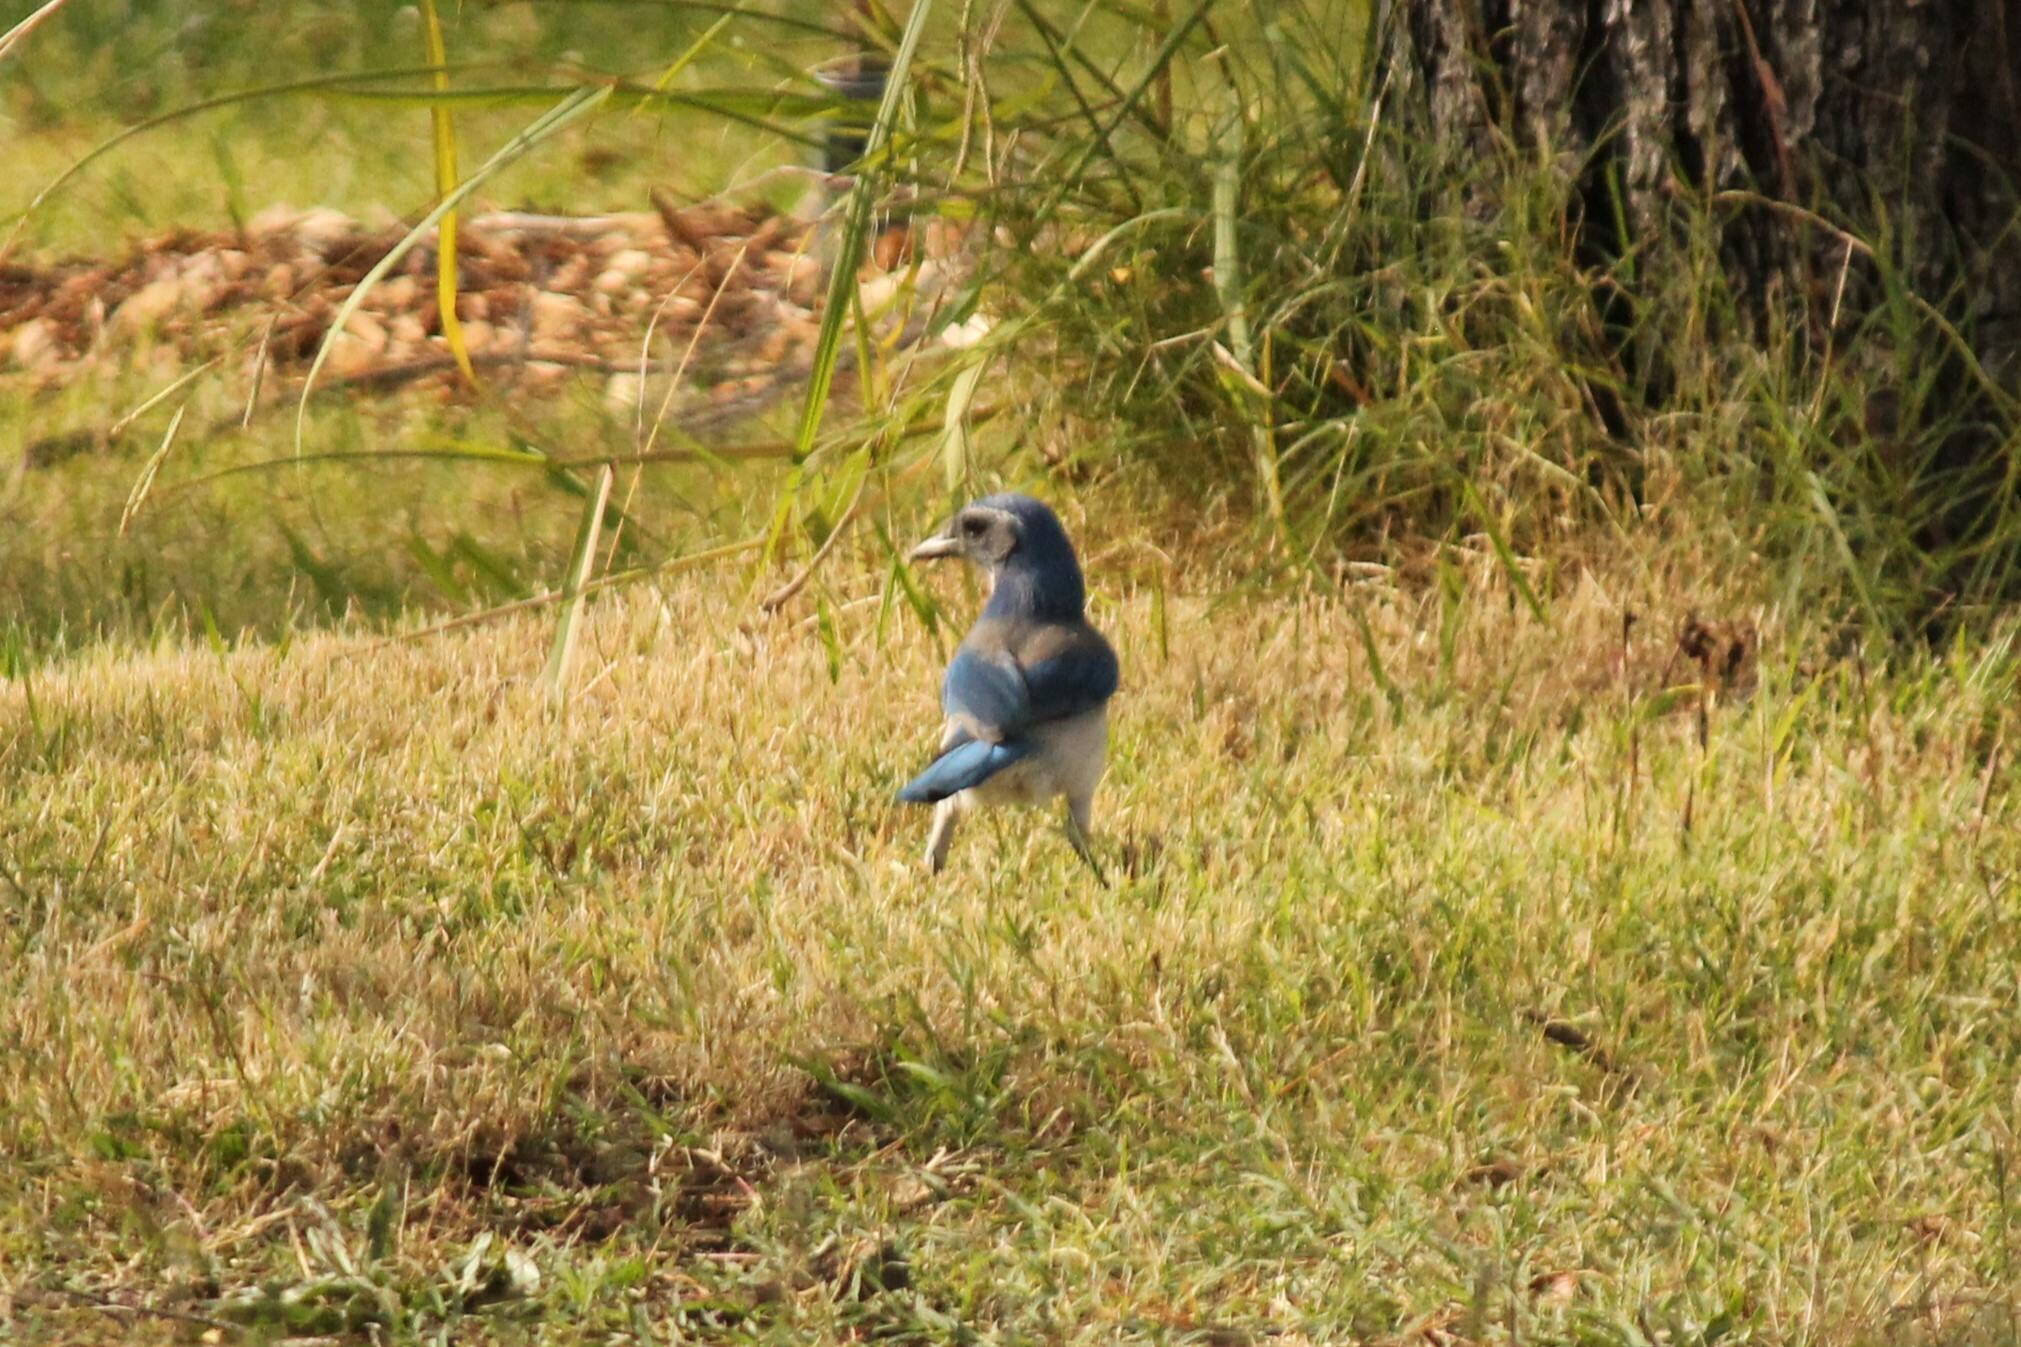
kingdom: Animalia
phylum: Chordata
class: Aves
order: Passeriformes
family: Corvidae
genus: Aphelocoma
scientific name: Aphelocoma californica
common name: California scrub-jay
